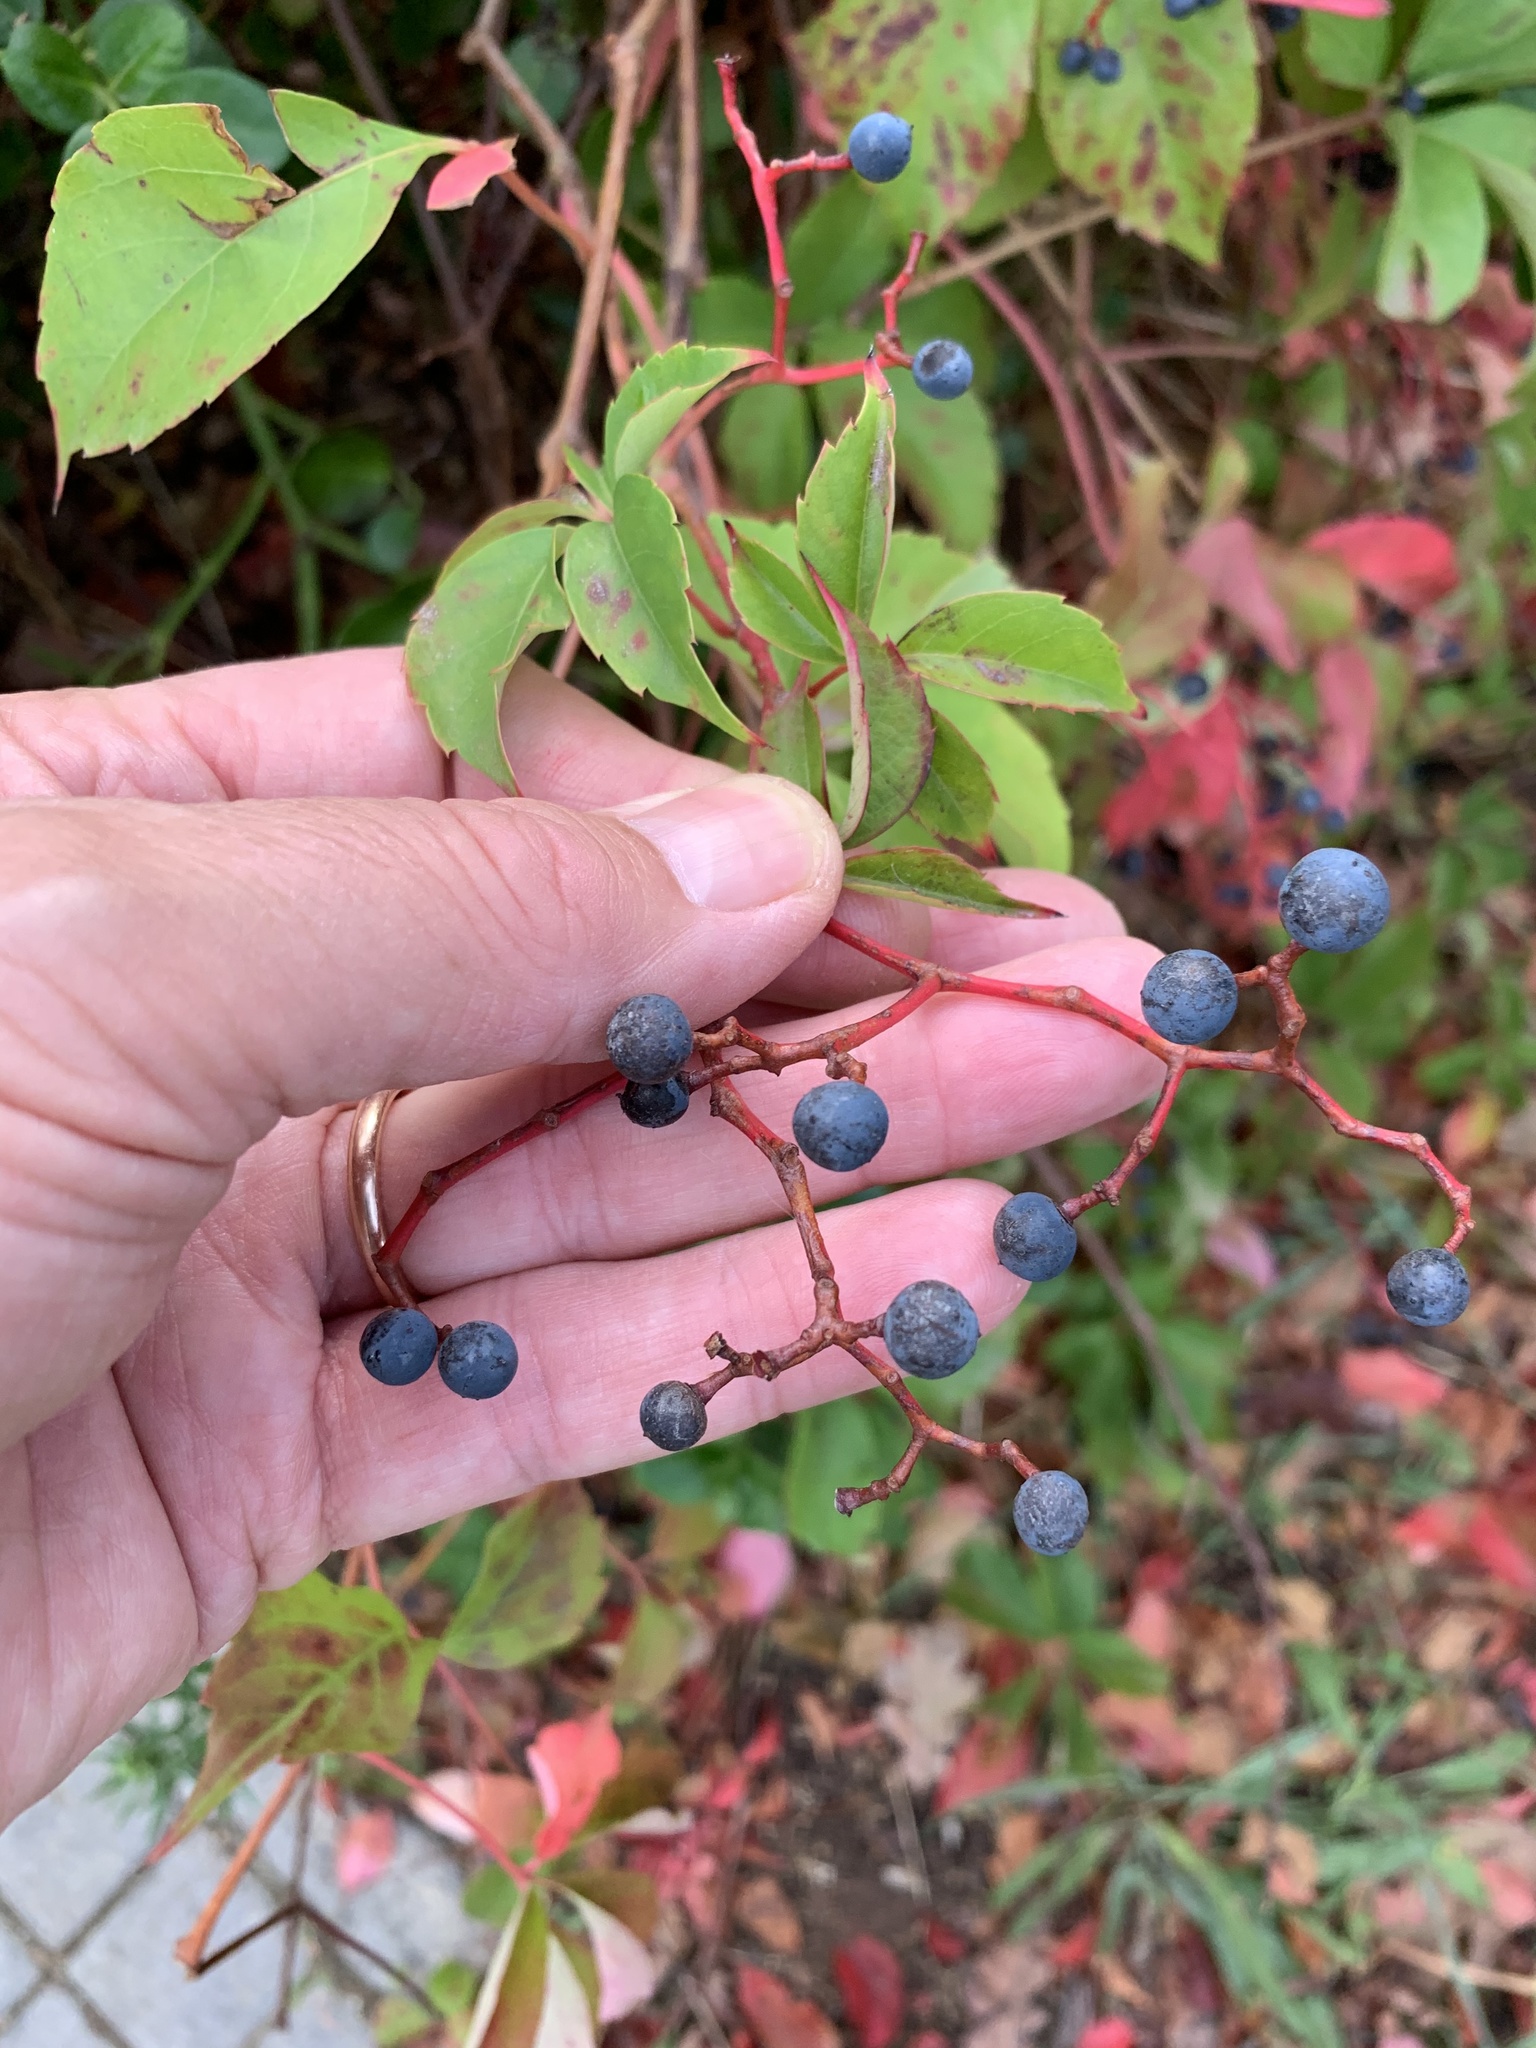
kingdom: Plantae
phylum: Tracheophyta
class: Magnoliopsida
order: Vitales
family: Vitaceae
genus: Parthenocissus
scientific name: Parthenocissus quinquefolia
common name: Virginia-creeper
